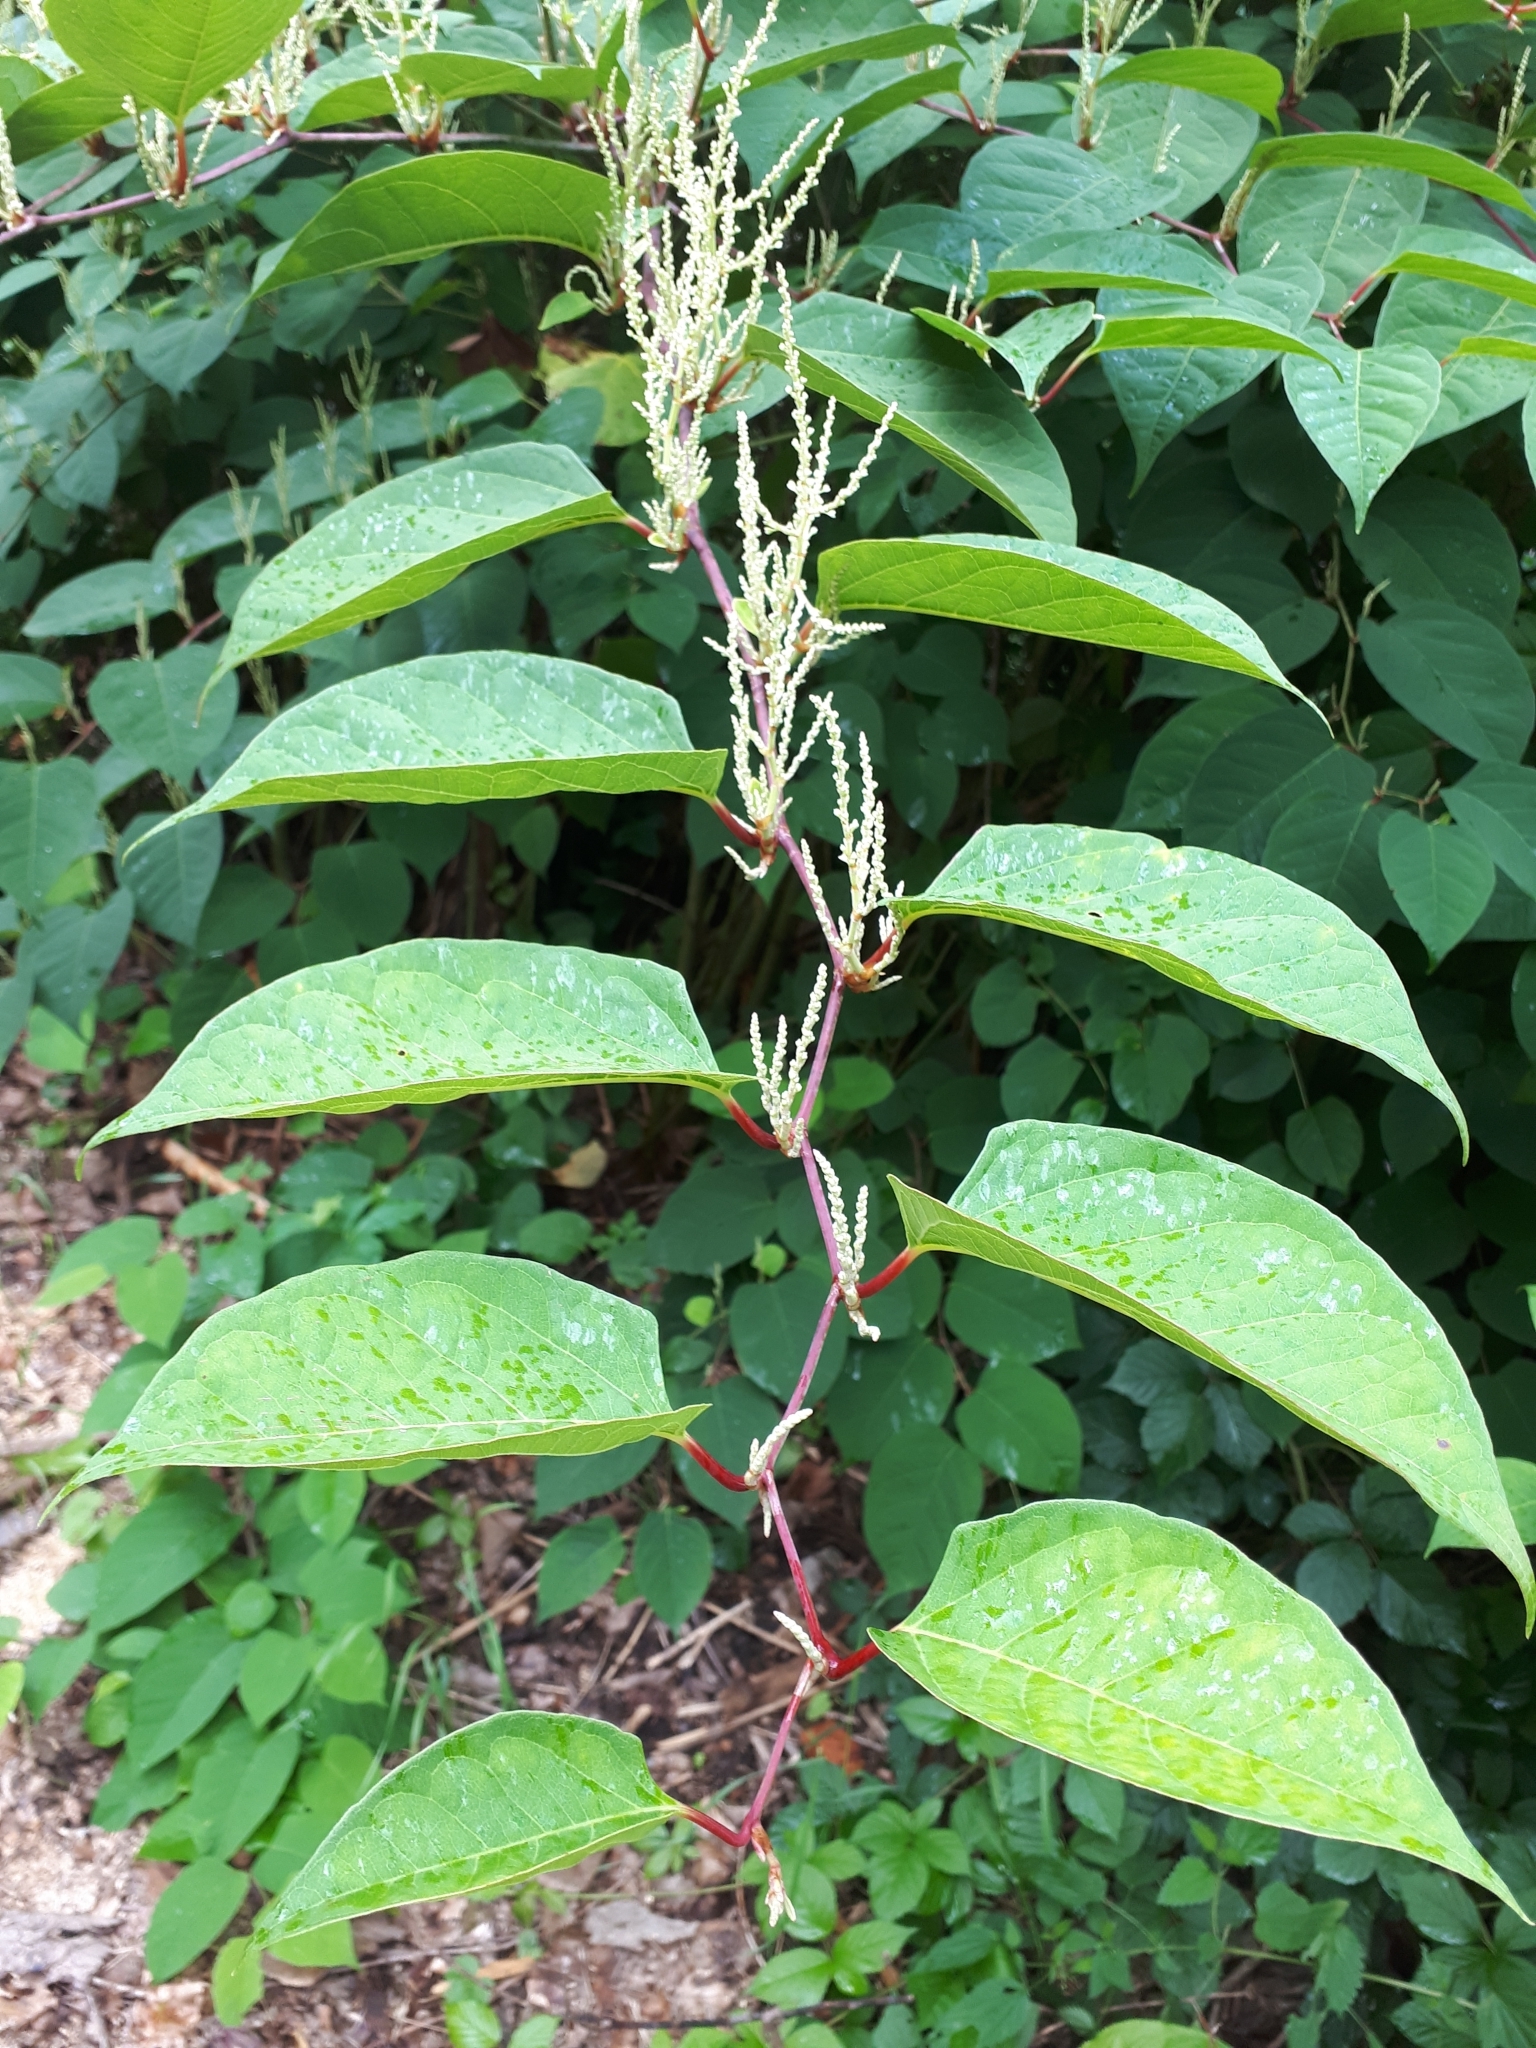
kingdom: Plantae
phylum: Tracheophyta
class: Magnoliopsida
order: Caryophyllales
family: Polygonaceae
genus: Reynoutria
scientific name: Reynoutria japonica
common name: Japanese knotweed
